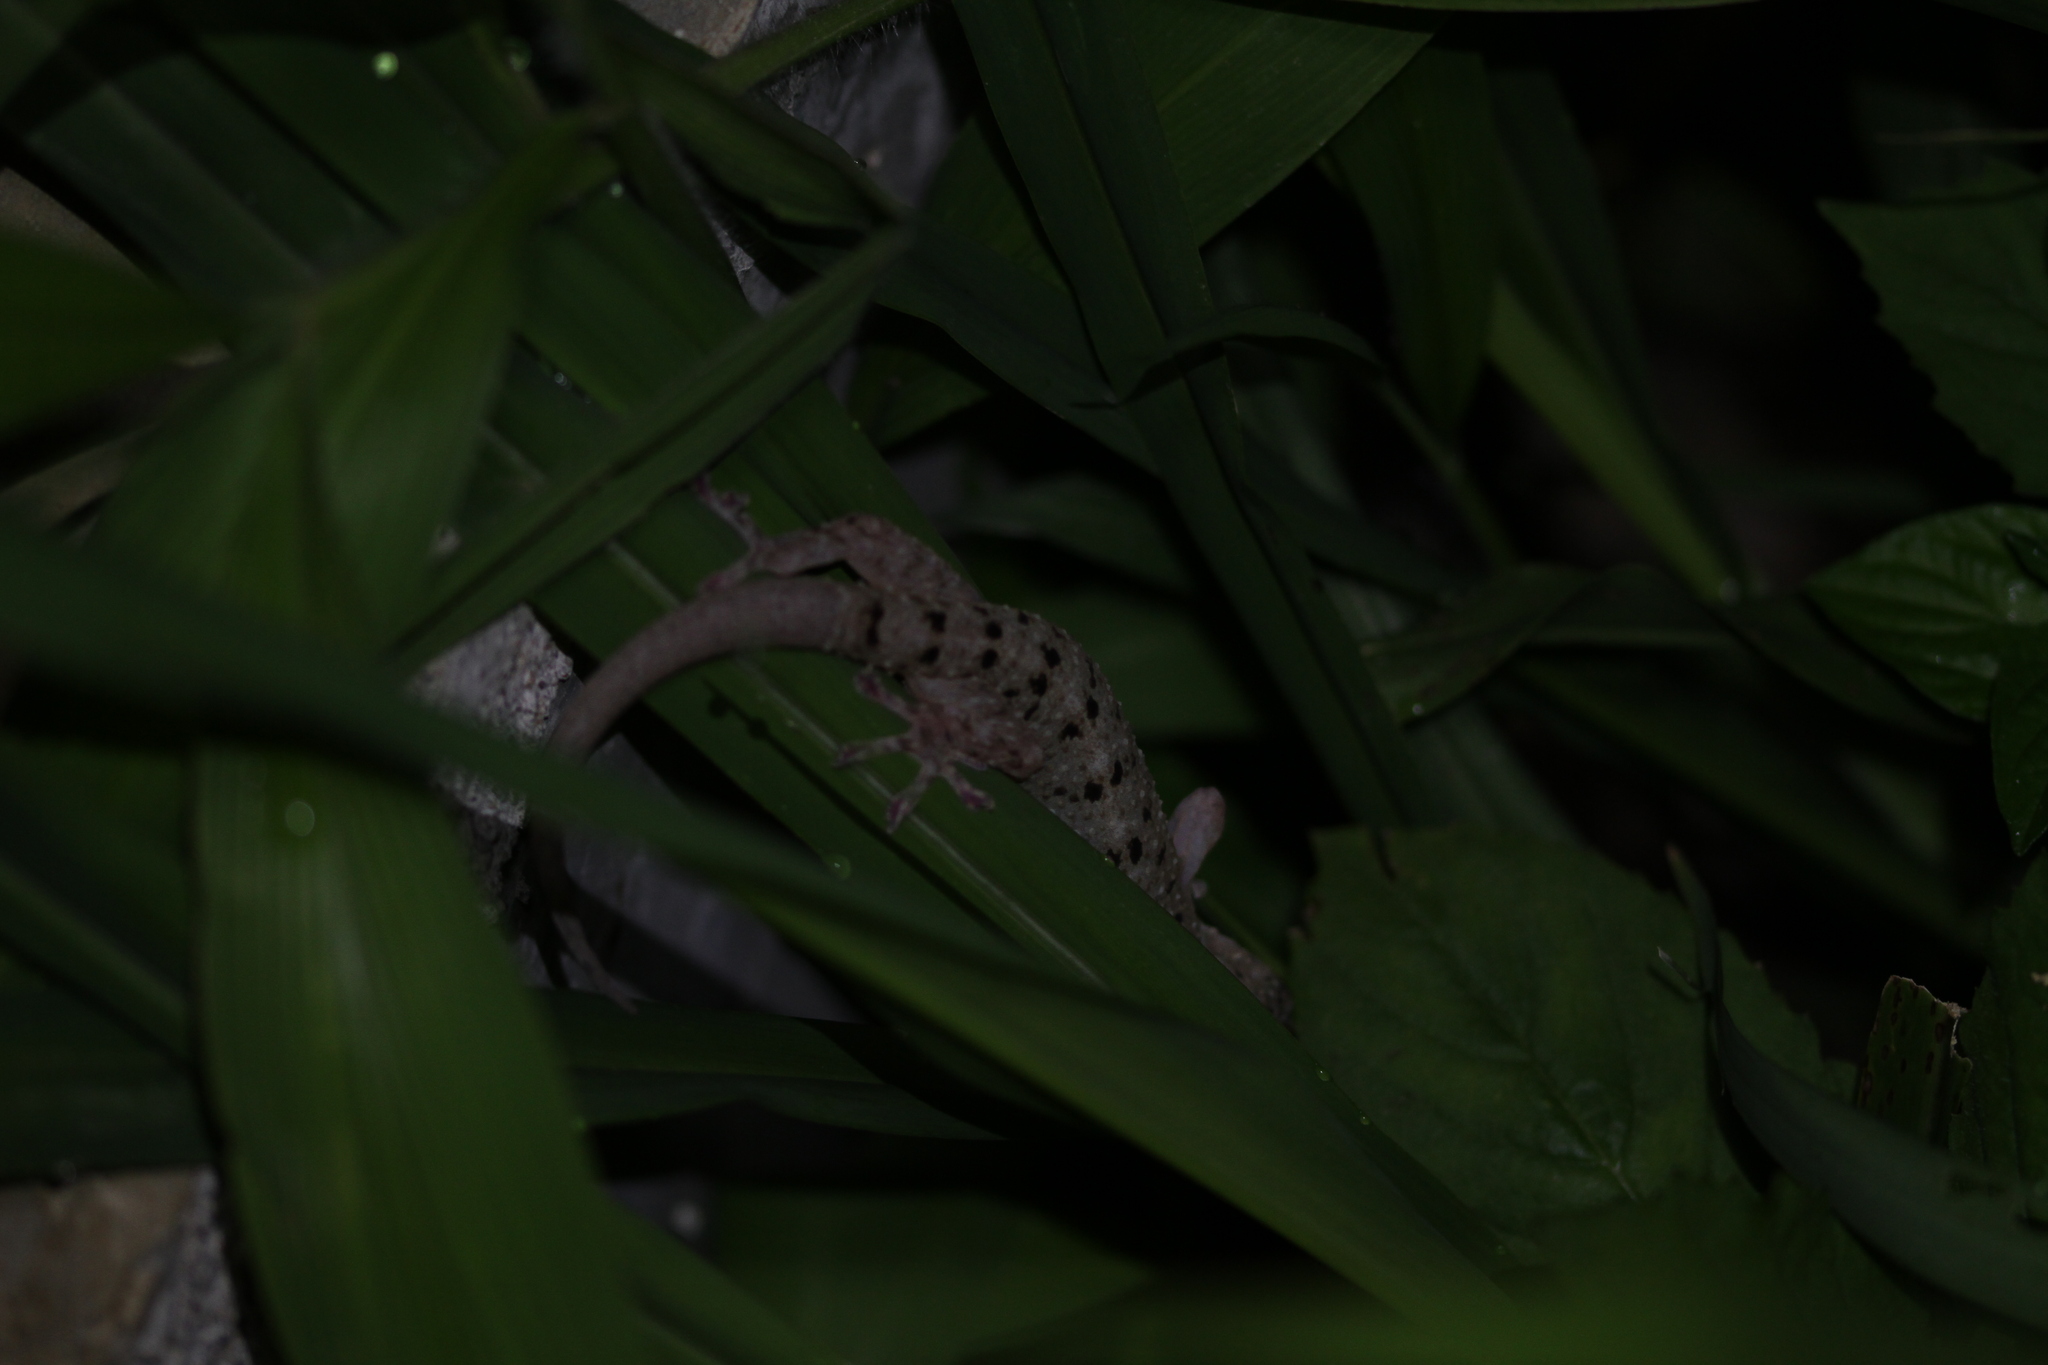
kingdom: Animalia
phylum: Chordata
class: Squamata
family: Gekkonidae
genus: Gekko
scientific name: Gekko monarchus
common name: Spotted house gecko
